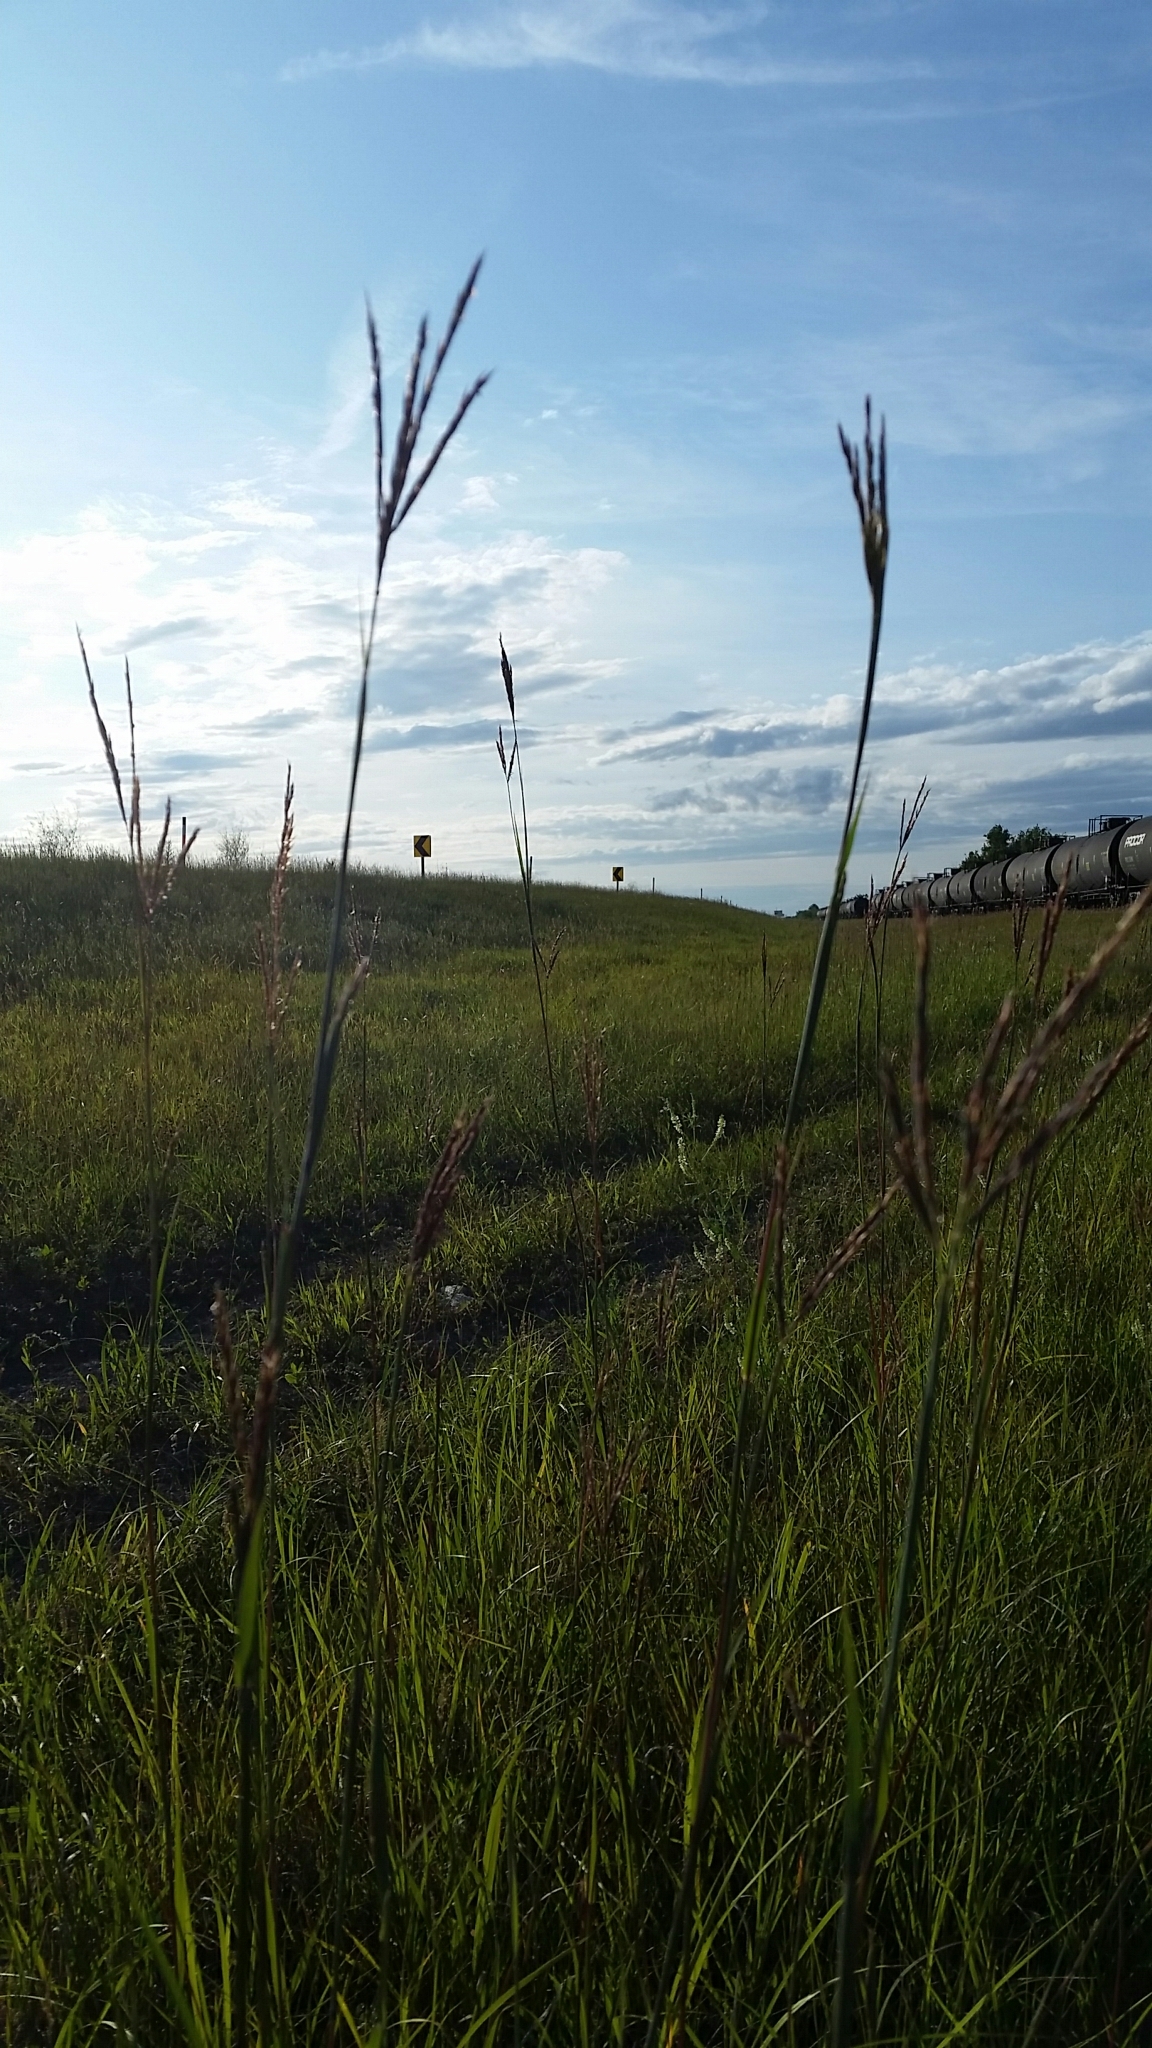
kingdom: Plantae
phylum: Tracheophyta
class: Liliopsida
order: Poales
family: Poaceae
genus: Andropogon
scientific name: Andropogon gerardi
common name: Big bluestem
